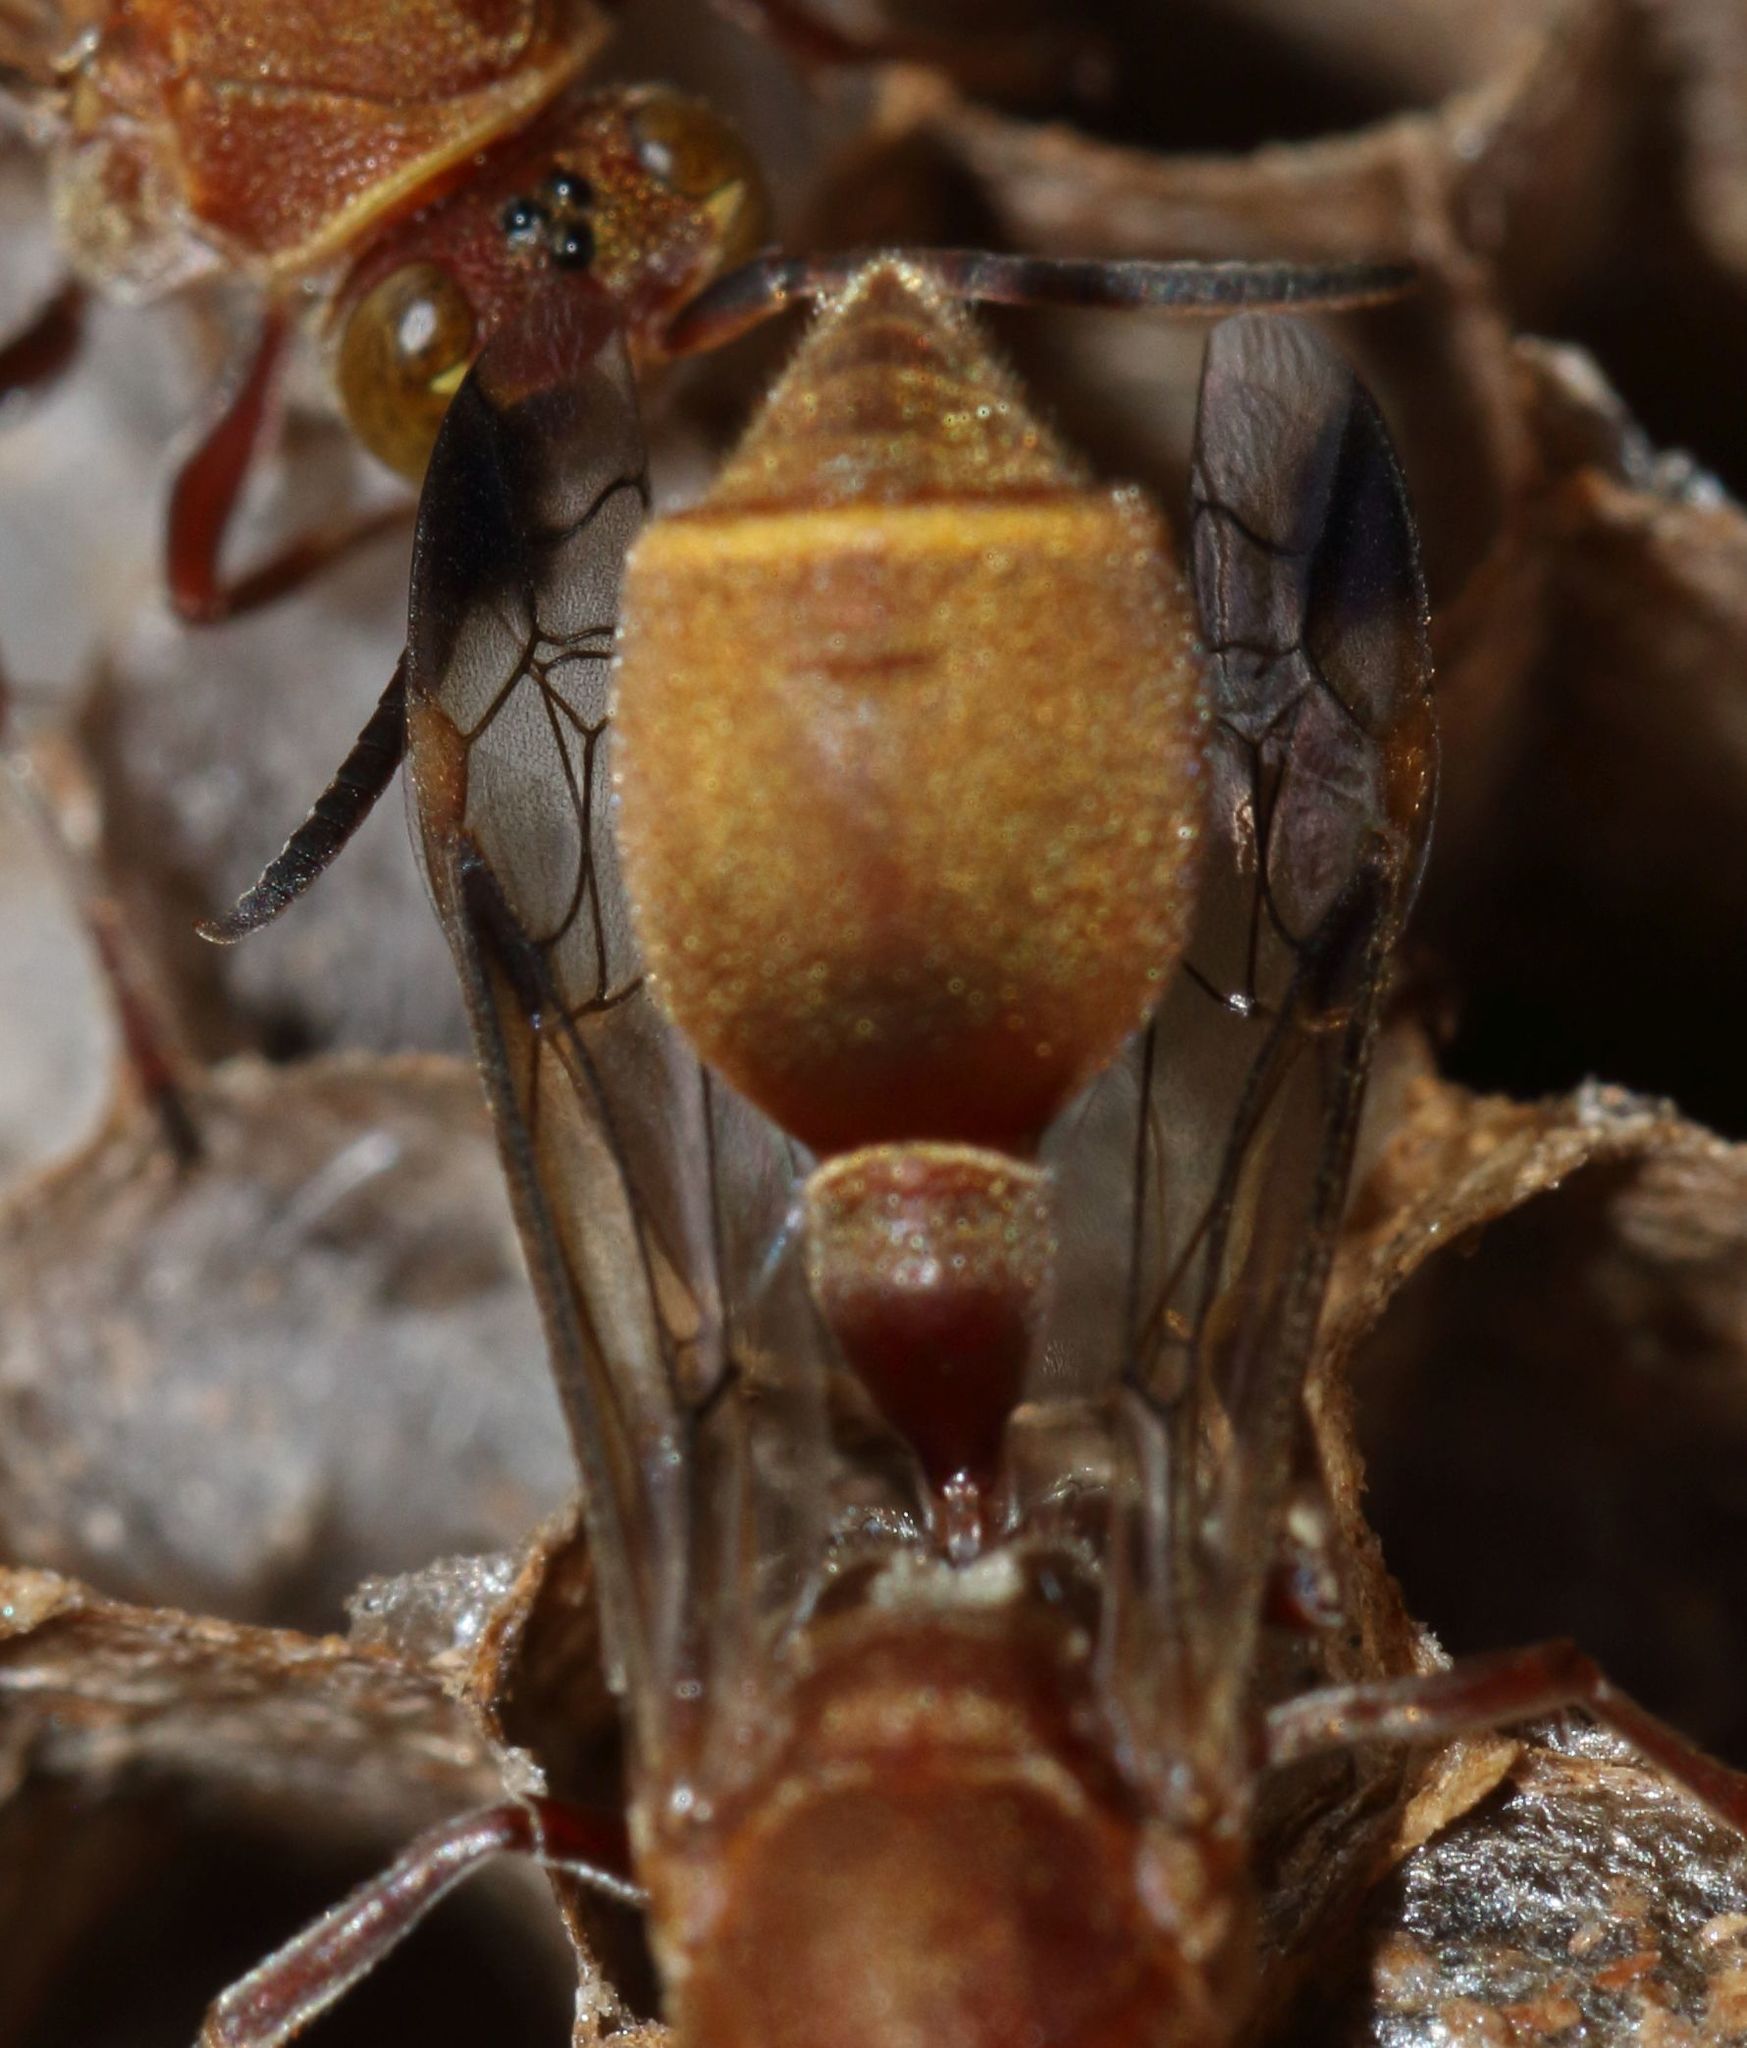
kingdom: Animalia
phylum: Arthropoda
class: Insecta
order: Hymenoptera
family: Vespidae
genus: Ropalidia
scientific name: Ropalidia distigma
